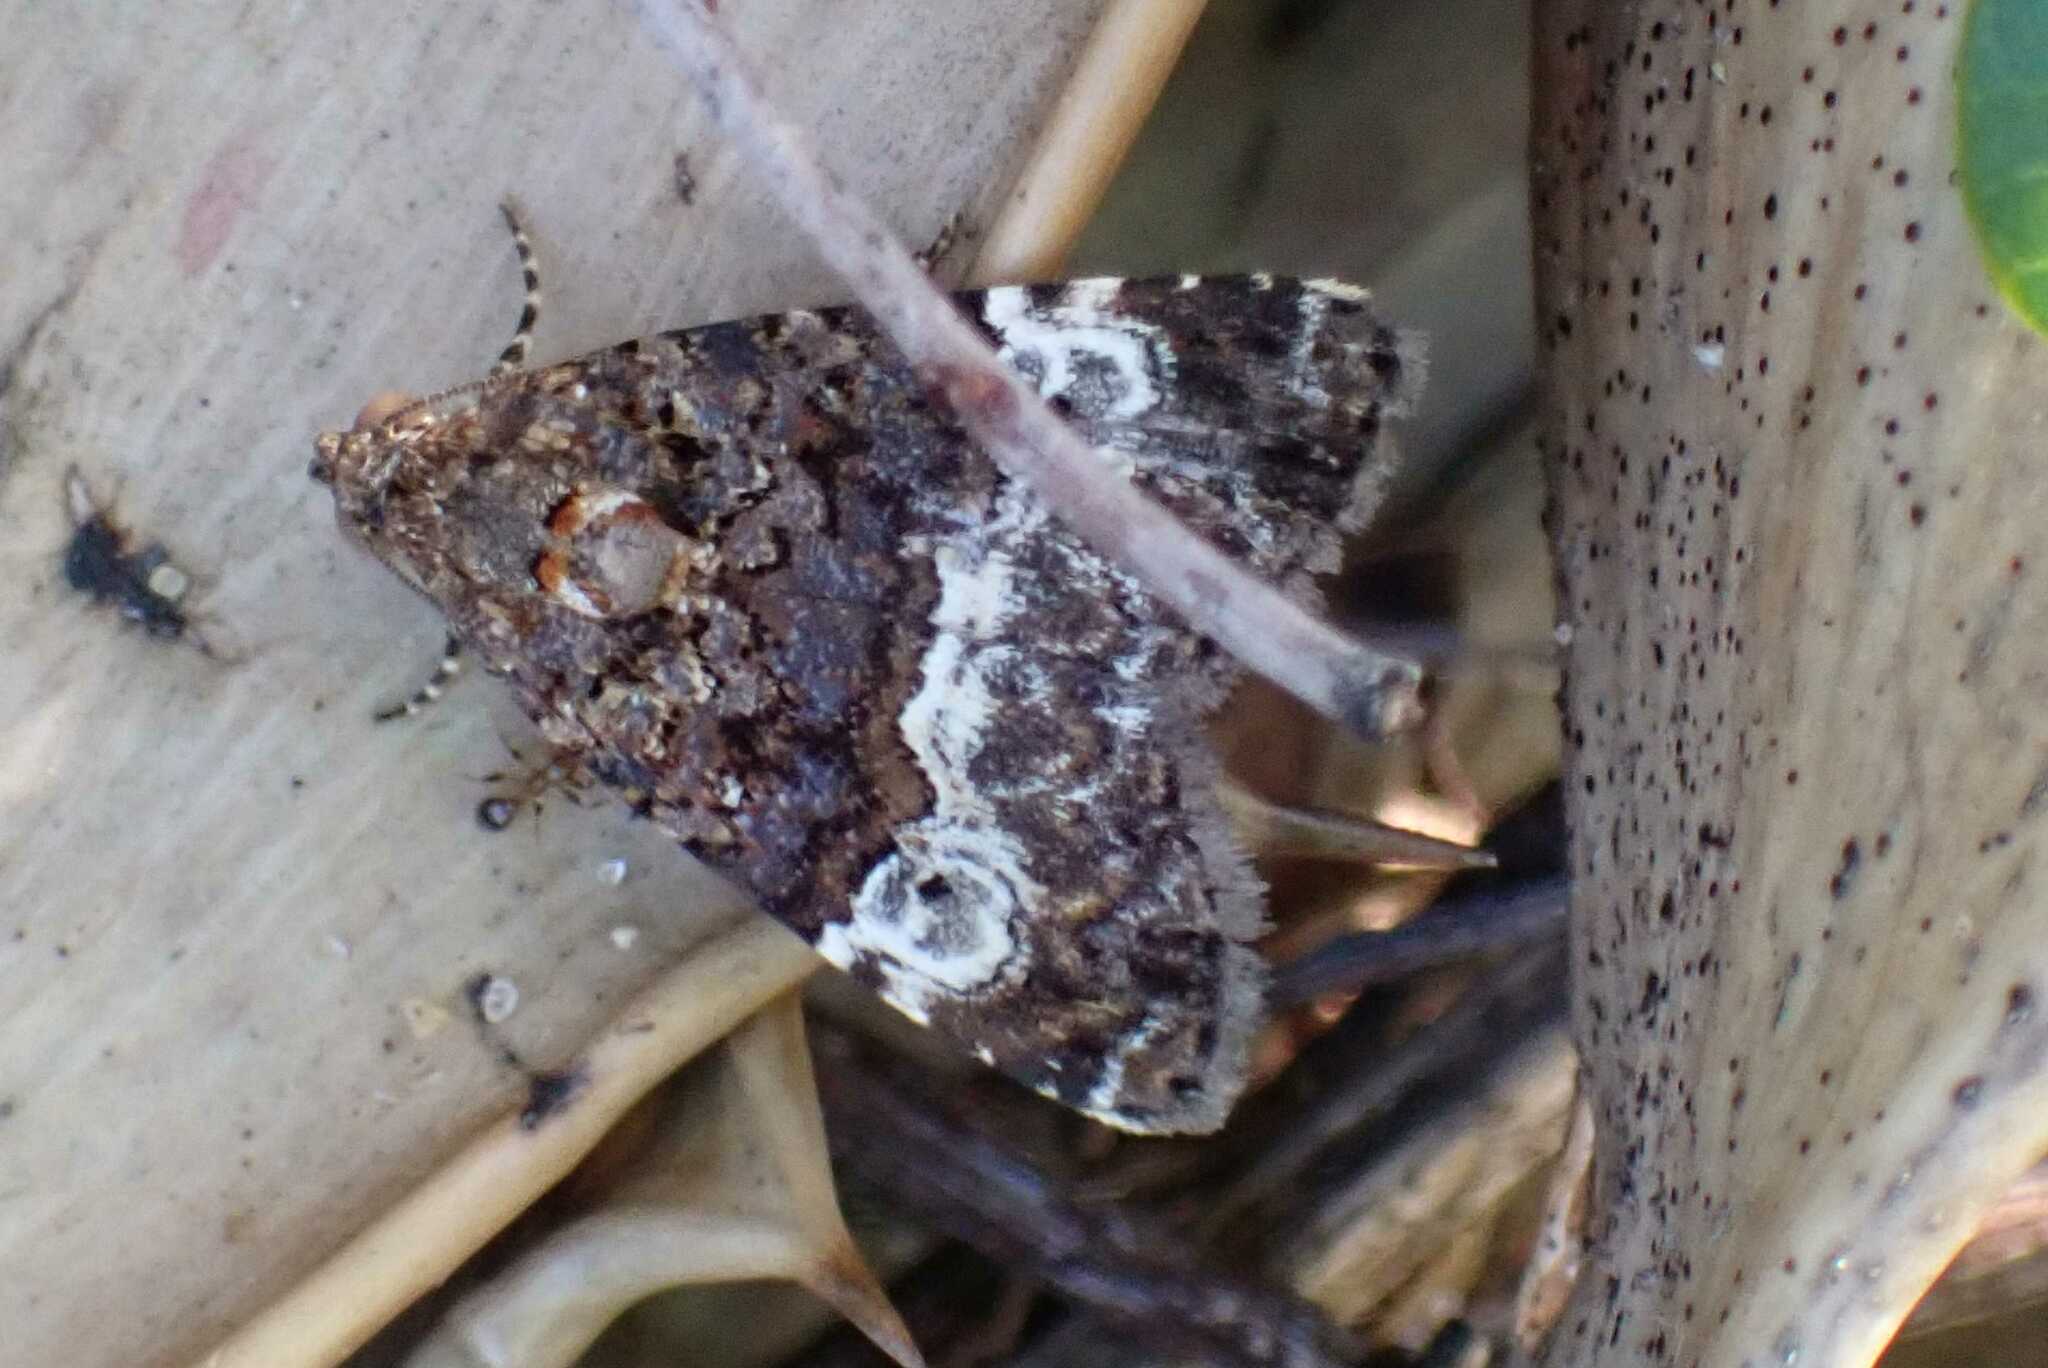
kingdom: Animalia
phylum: Arthropoda
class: Insecta
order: Lepidoptera
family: Noctuidae
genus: Eustrotia
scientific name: Eustrotia decissima
